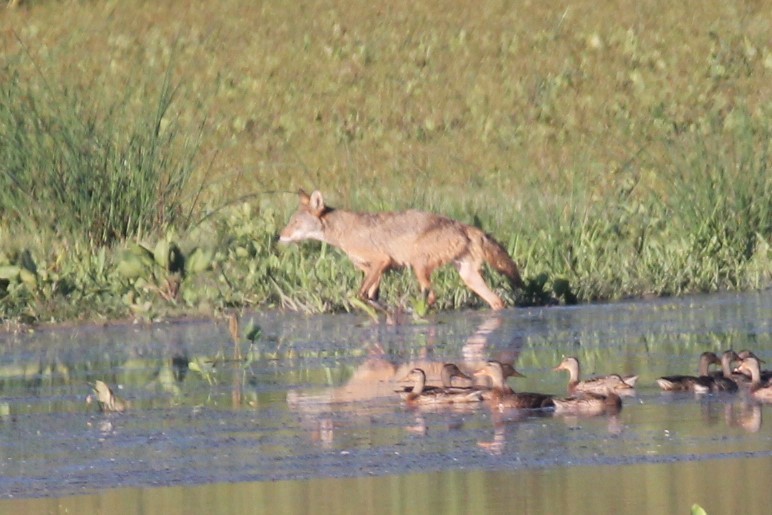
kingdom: Animalia
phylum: Chordata
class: Mammalia
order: Carnivora
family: Canidae
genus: Canis
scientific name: Canis latrans
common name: Coyote
